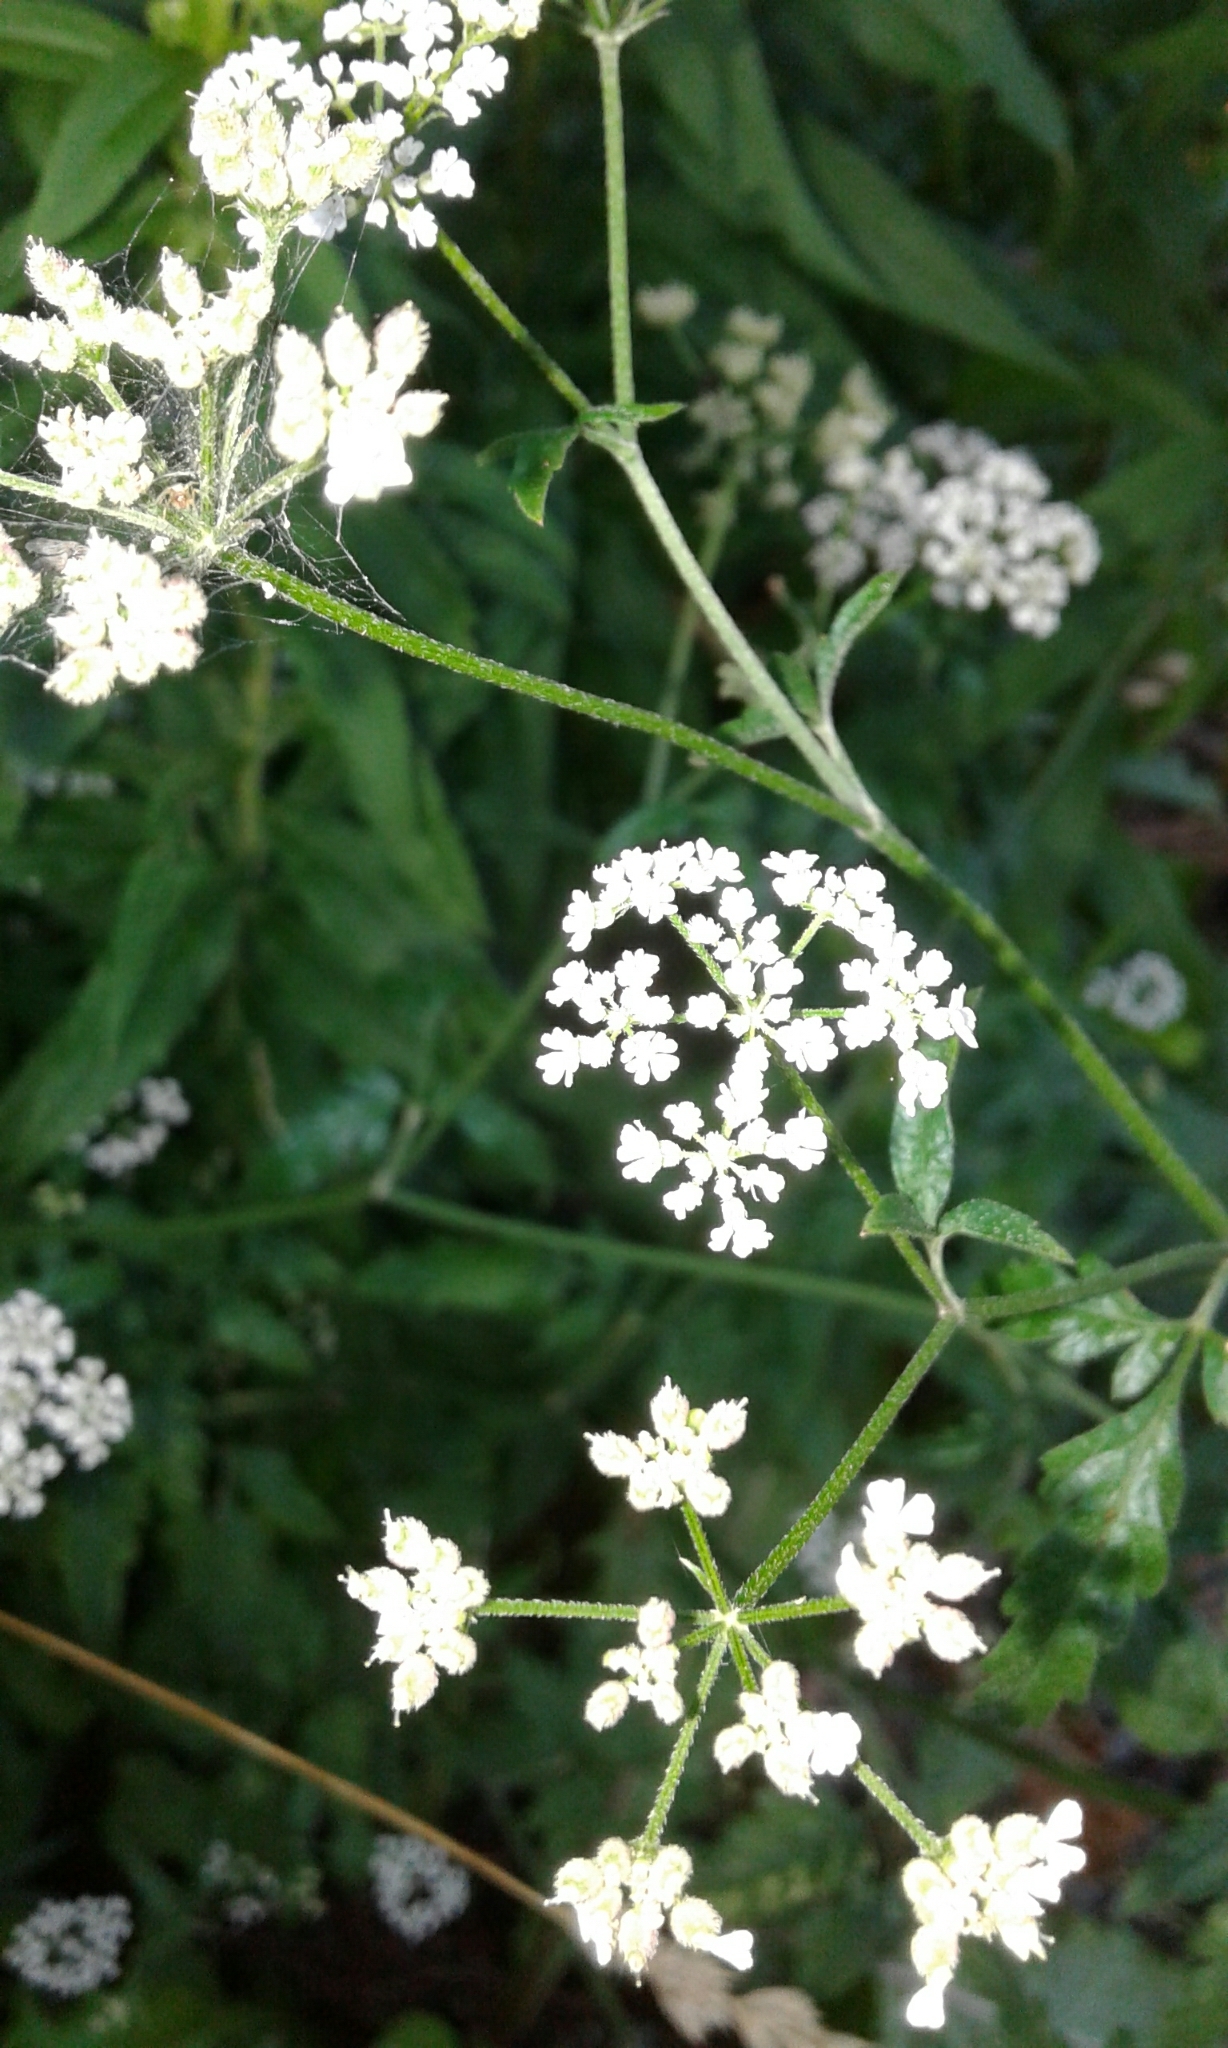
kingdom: Plantae
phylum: Tracheophyta
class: Magnoliopsida
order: Apiales
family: Apiaceae
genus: Torilis
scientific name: Torilis japonica
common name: Upright hedge-parsley
